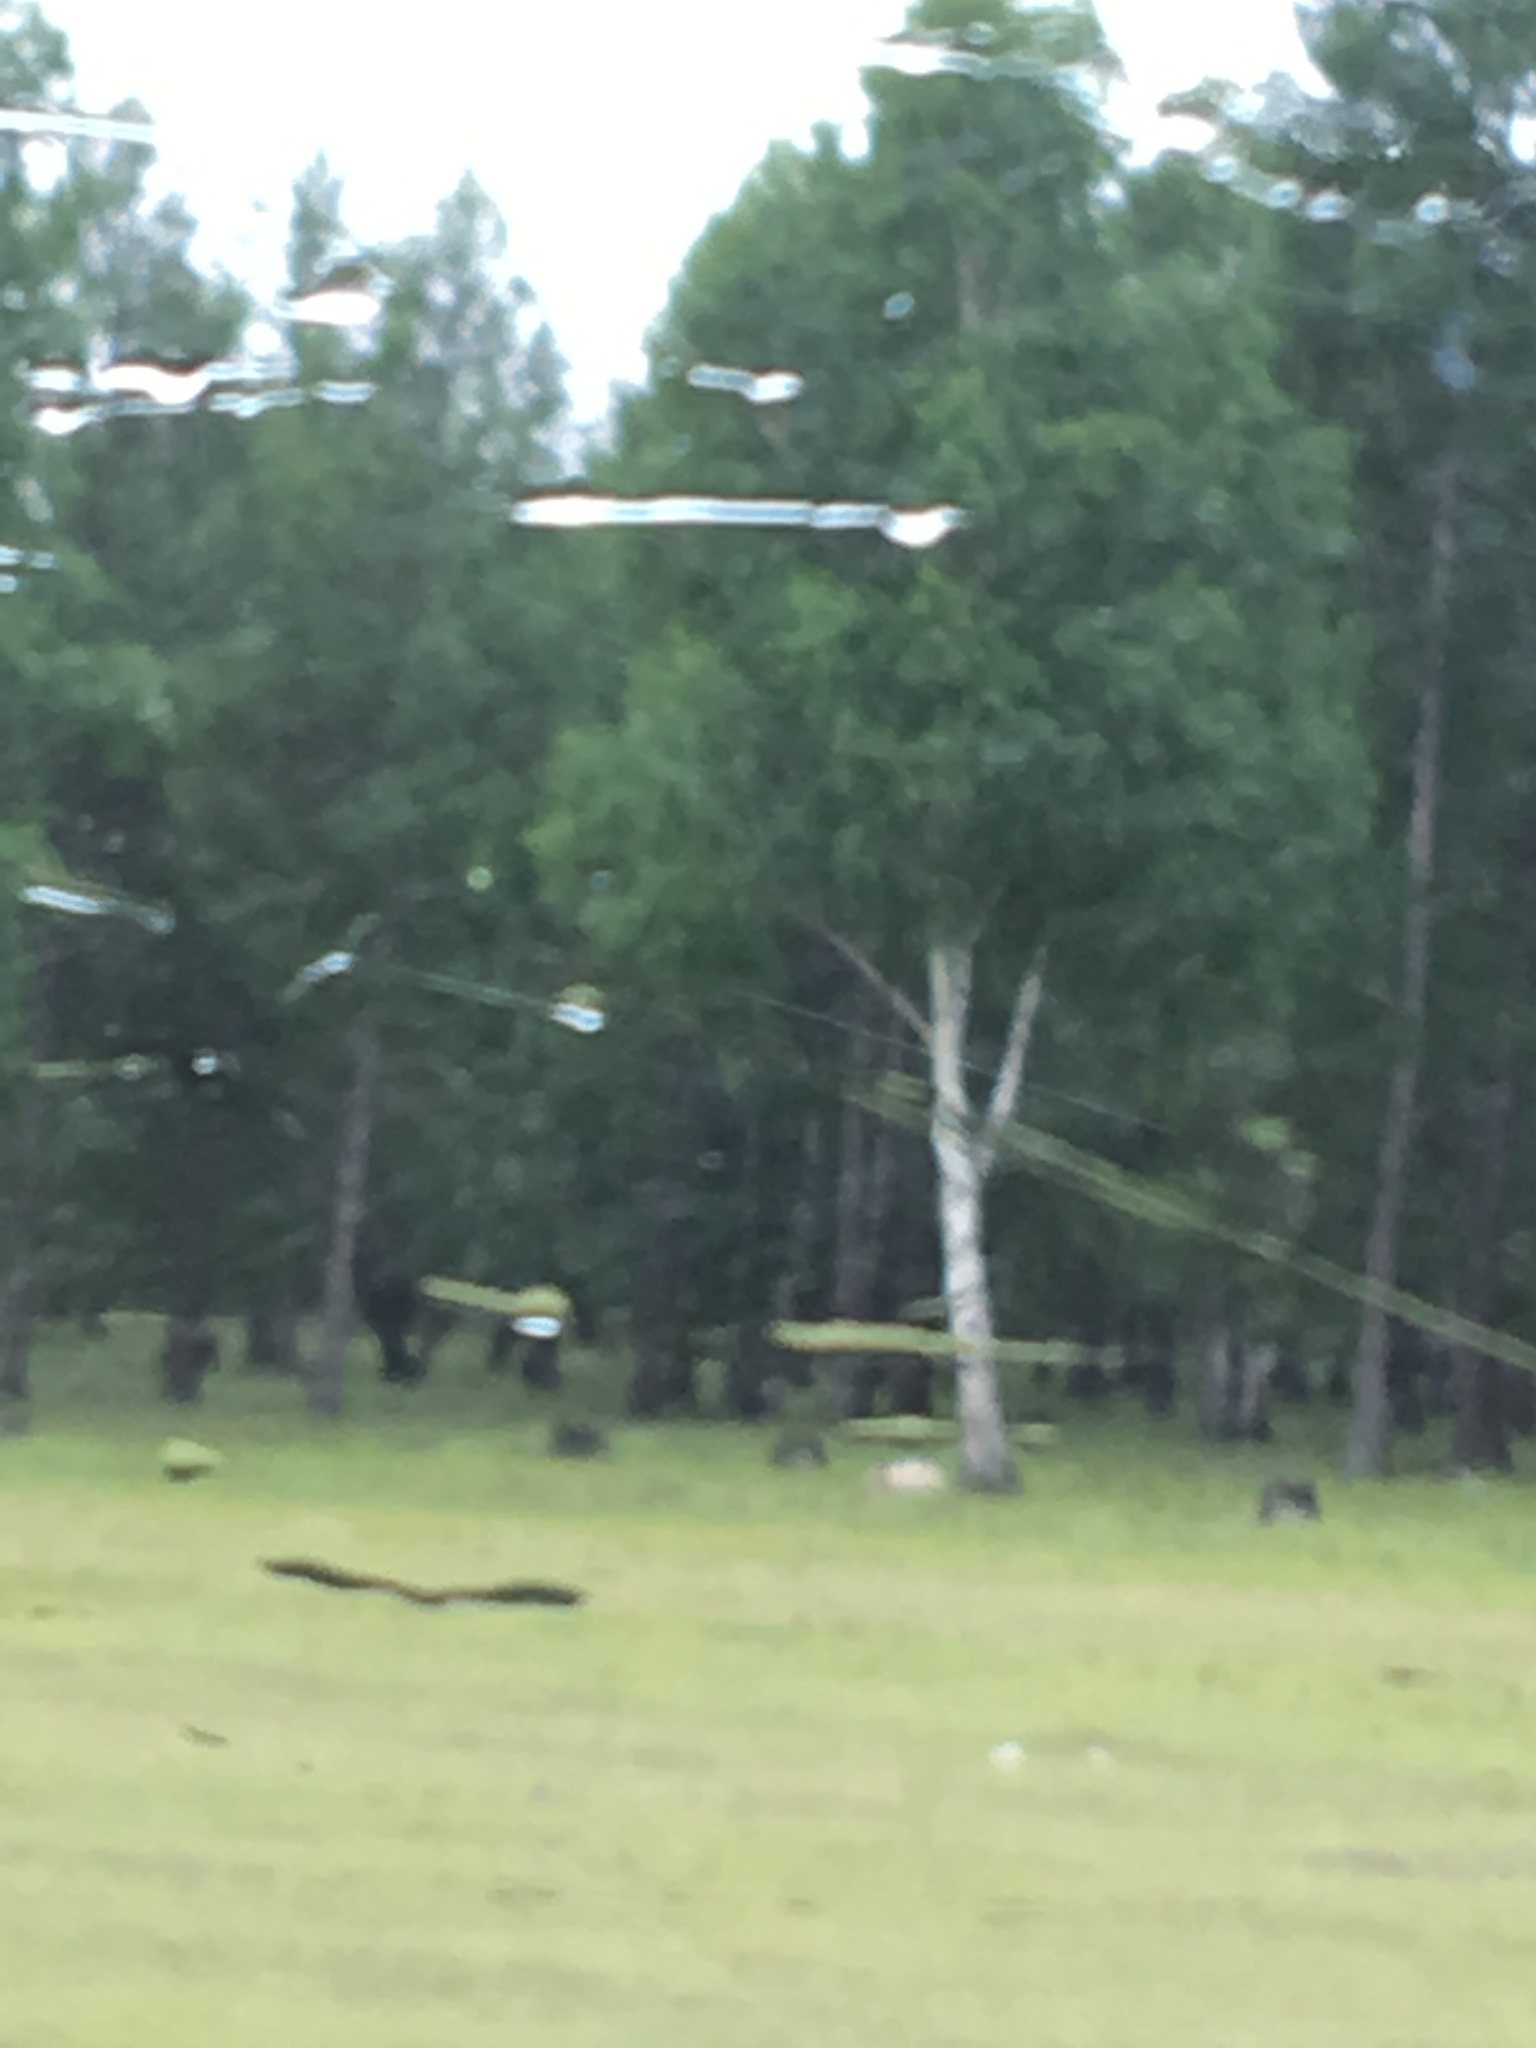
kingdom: Plantae
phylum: Tracheophyta
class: Magnoliopsida
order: Fagales
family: Betulaceae
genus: Betula
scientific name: Betula pendula
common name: Silver birch
